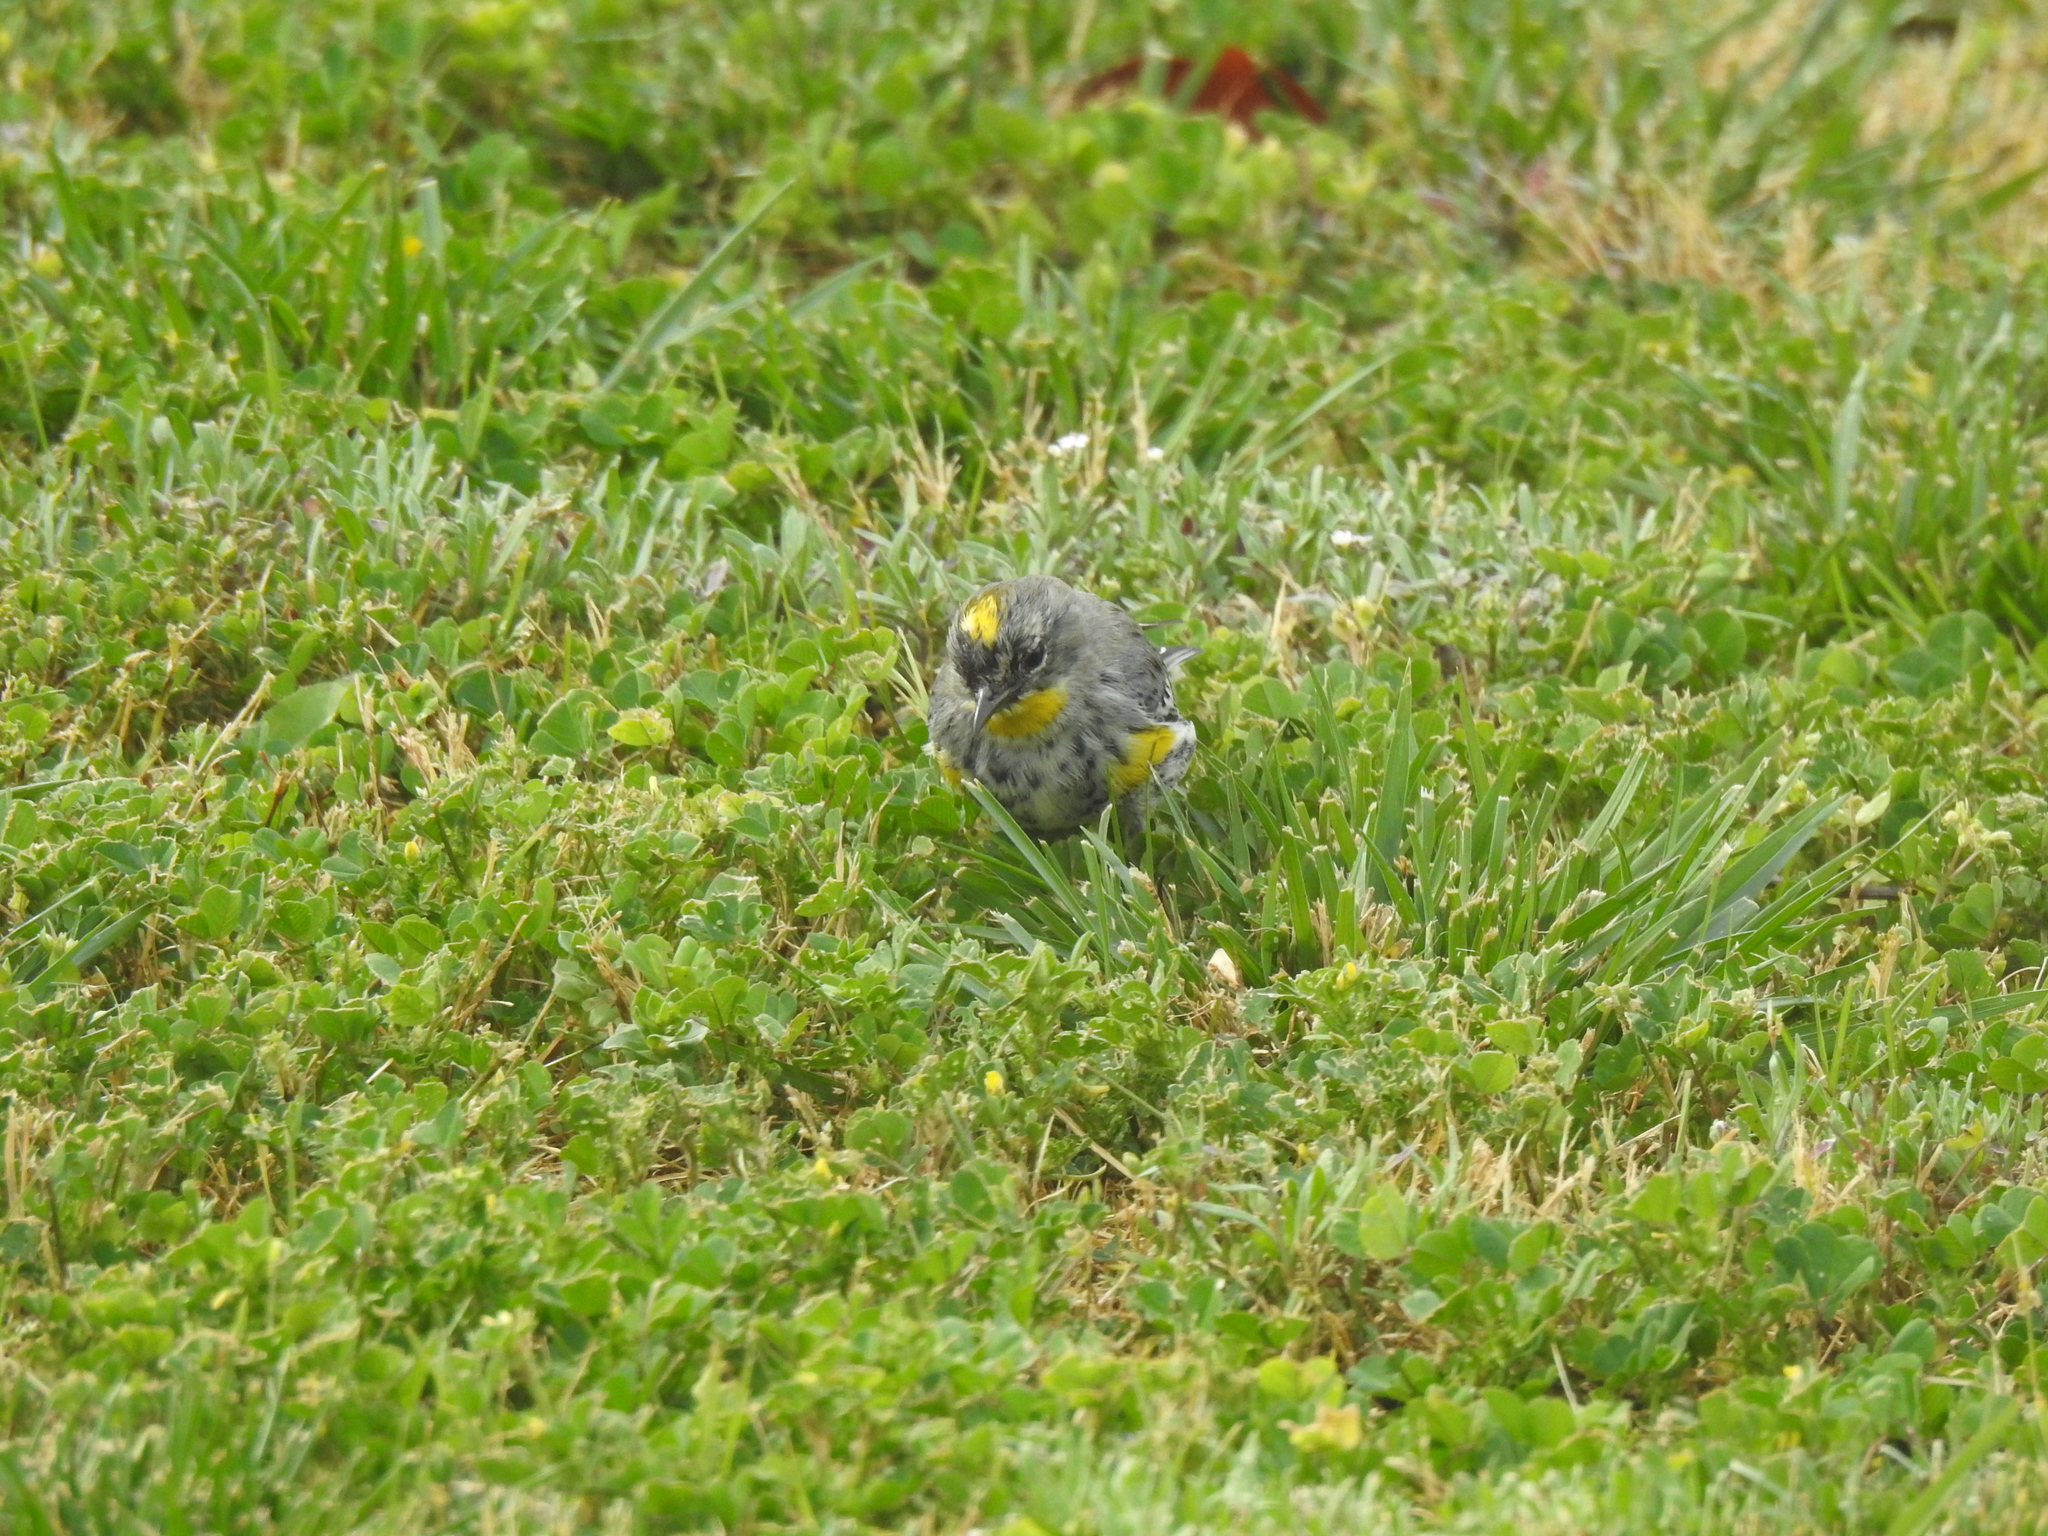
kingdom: Animalia
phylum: Chordata
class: Aves
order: Passeriformes
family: Parulidae
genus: Setophaga
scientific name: Setophaga coronata
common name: Myrtle warbler
